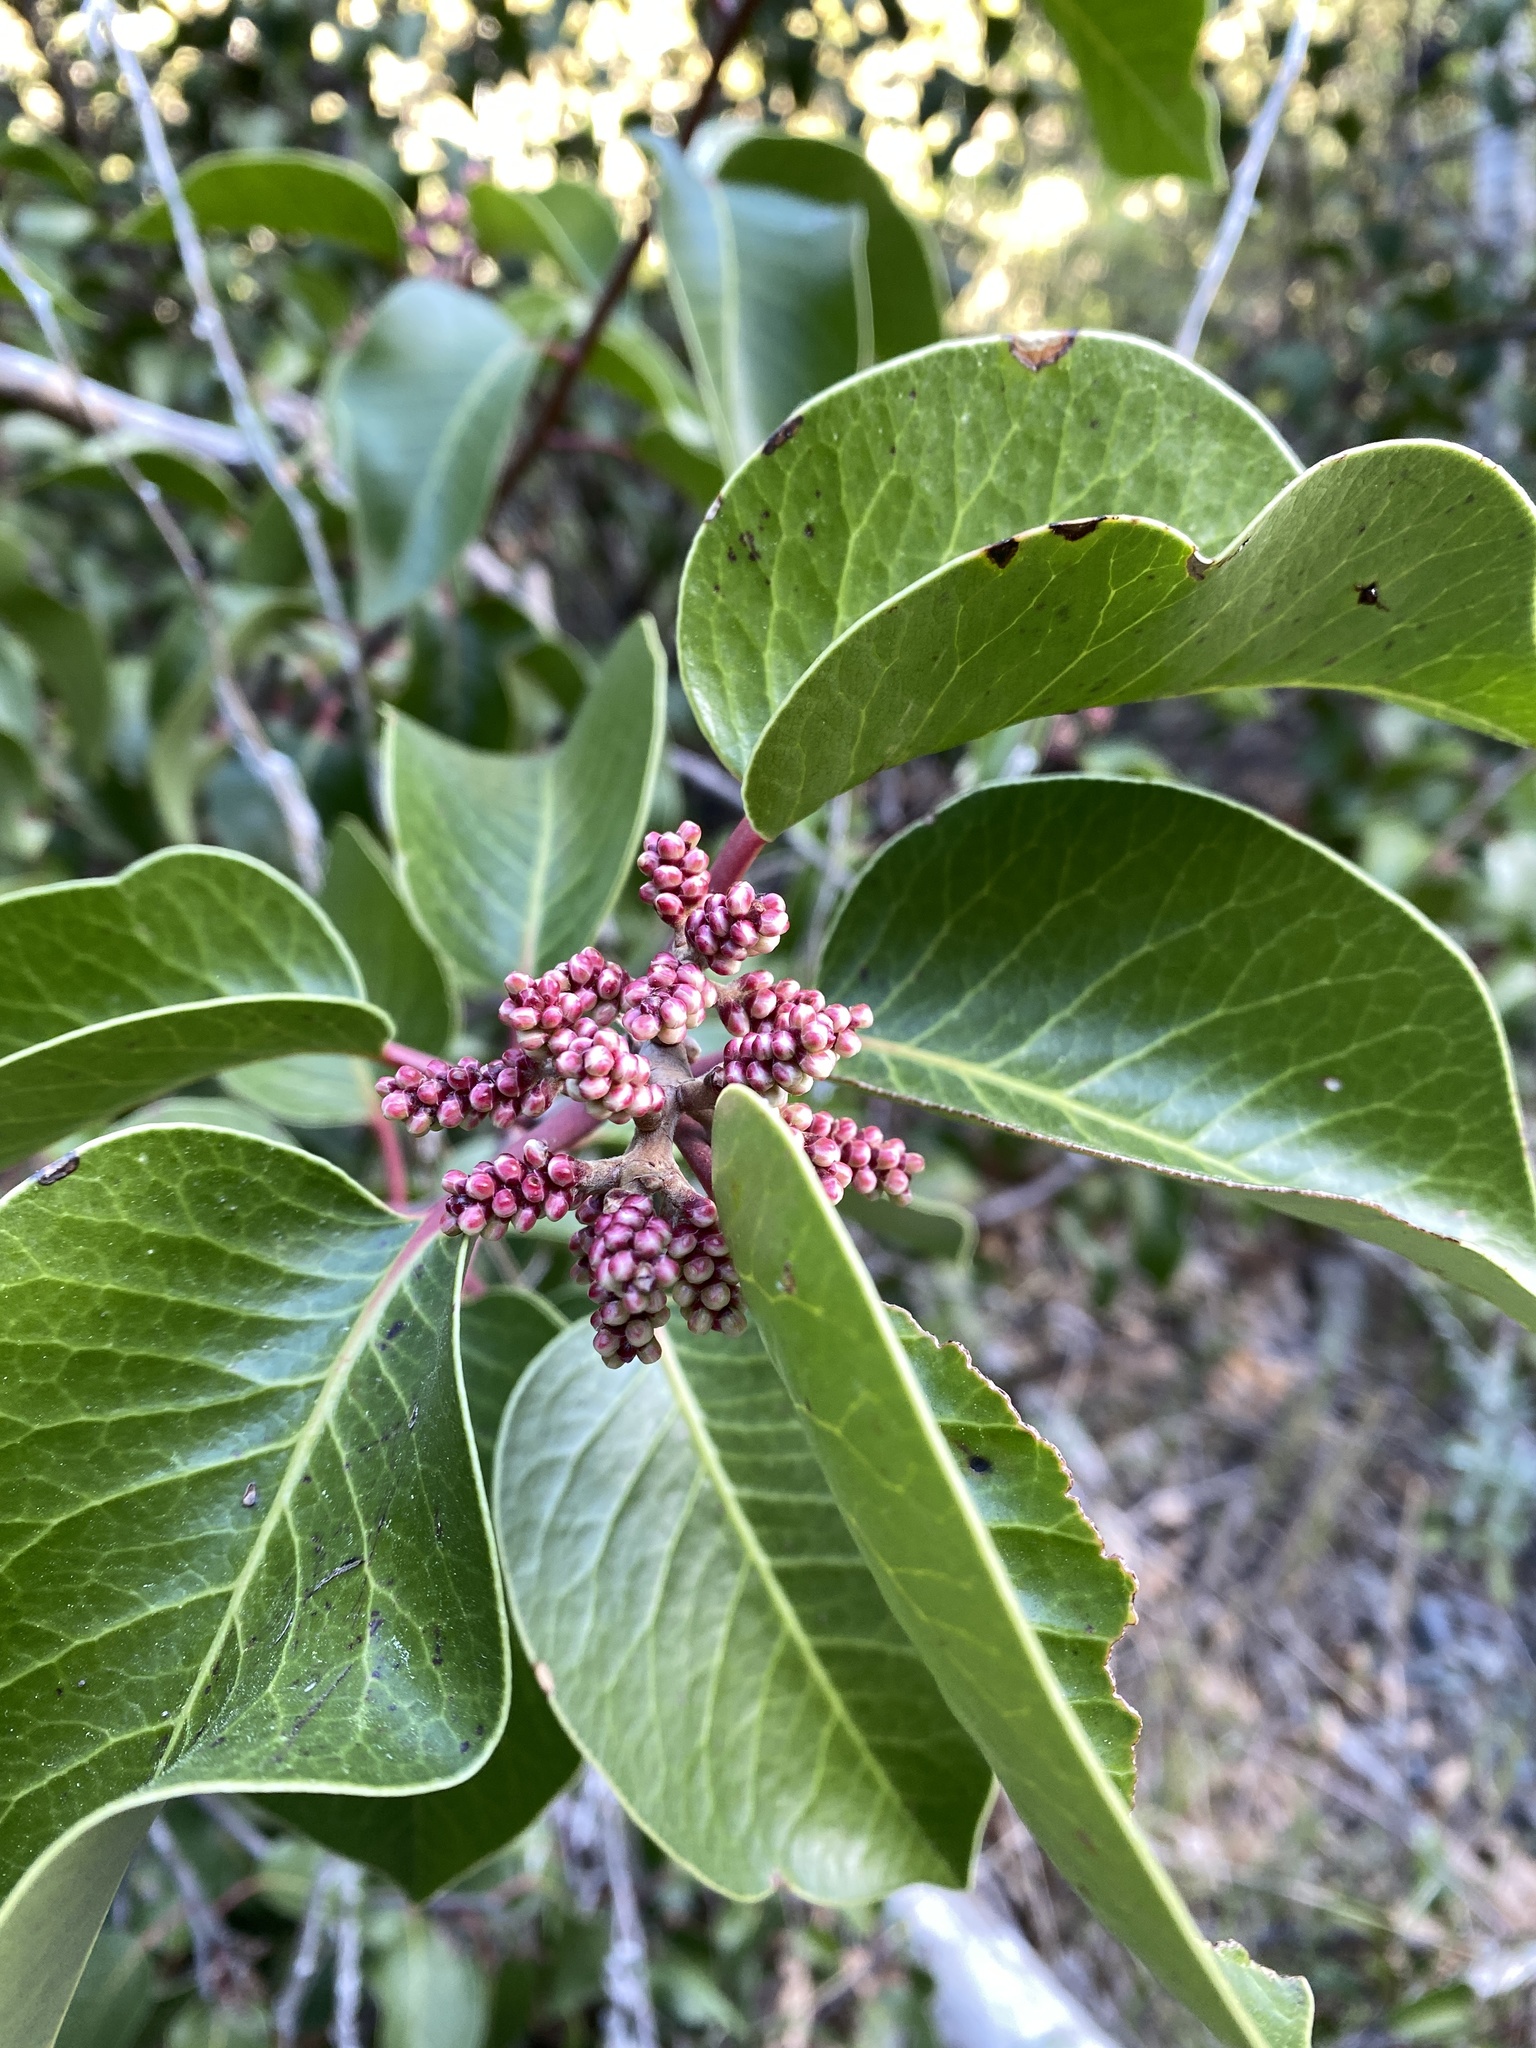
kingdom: Plantae
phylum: Tracheophyta
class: Magnoliopsida
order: Sapindales
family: Anacardiaceae
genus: Rhus
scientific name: Rhus ovata
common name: Sugar sumac
